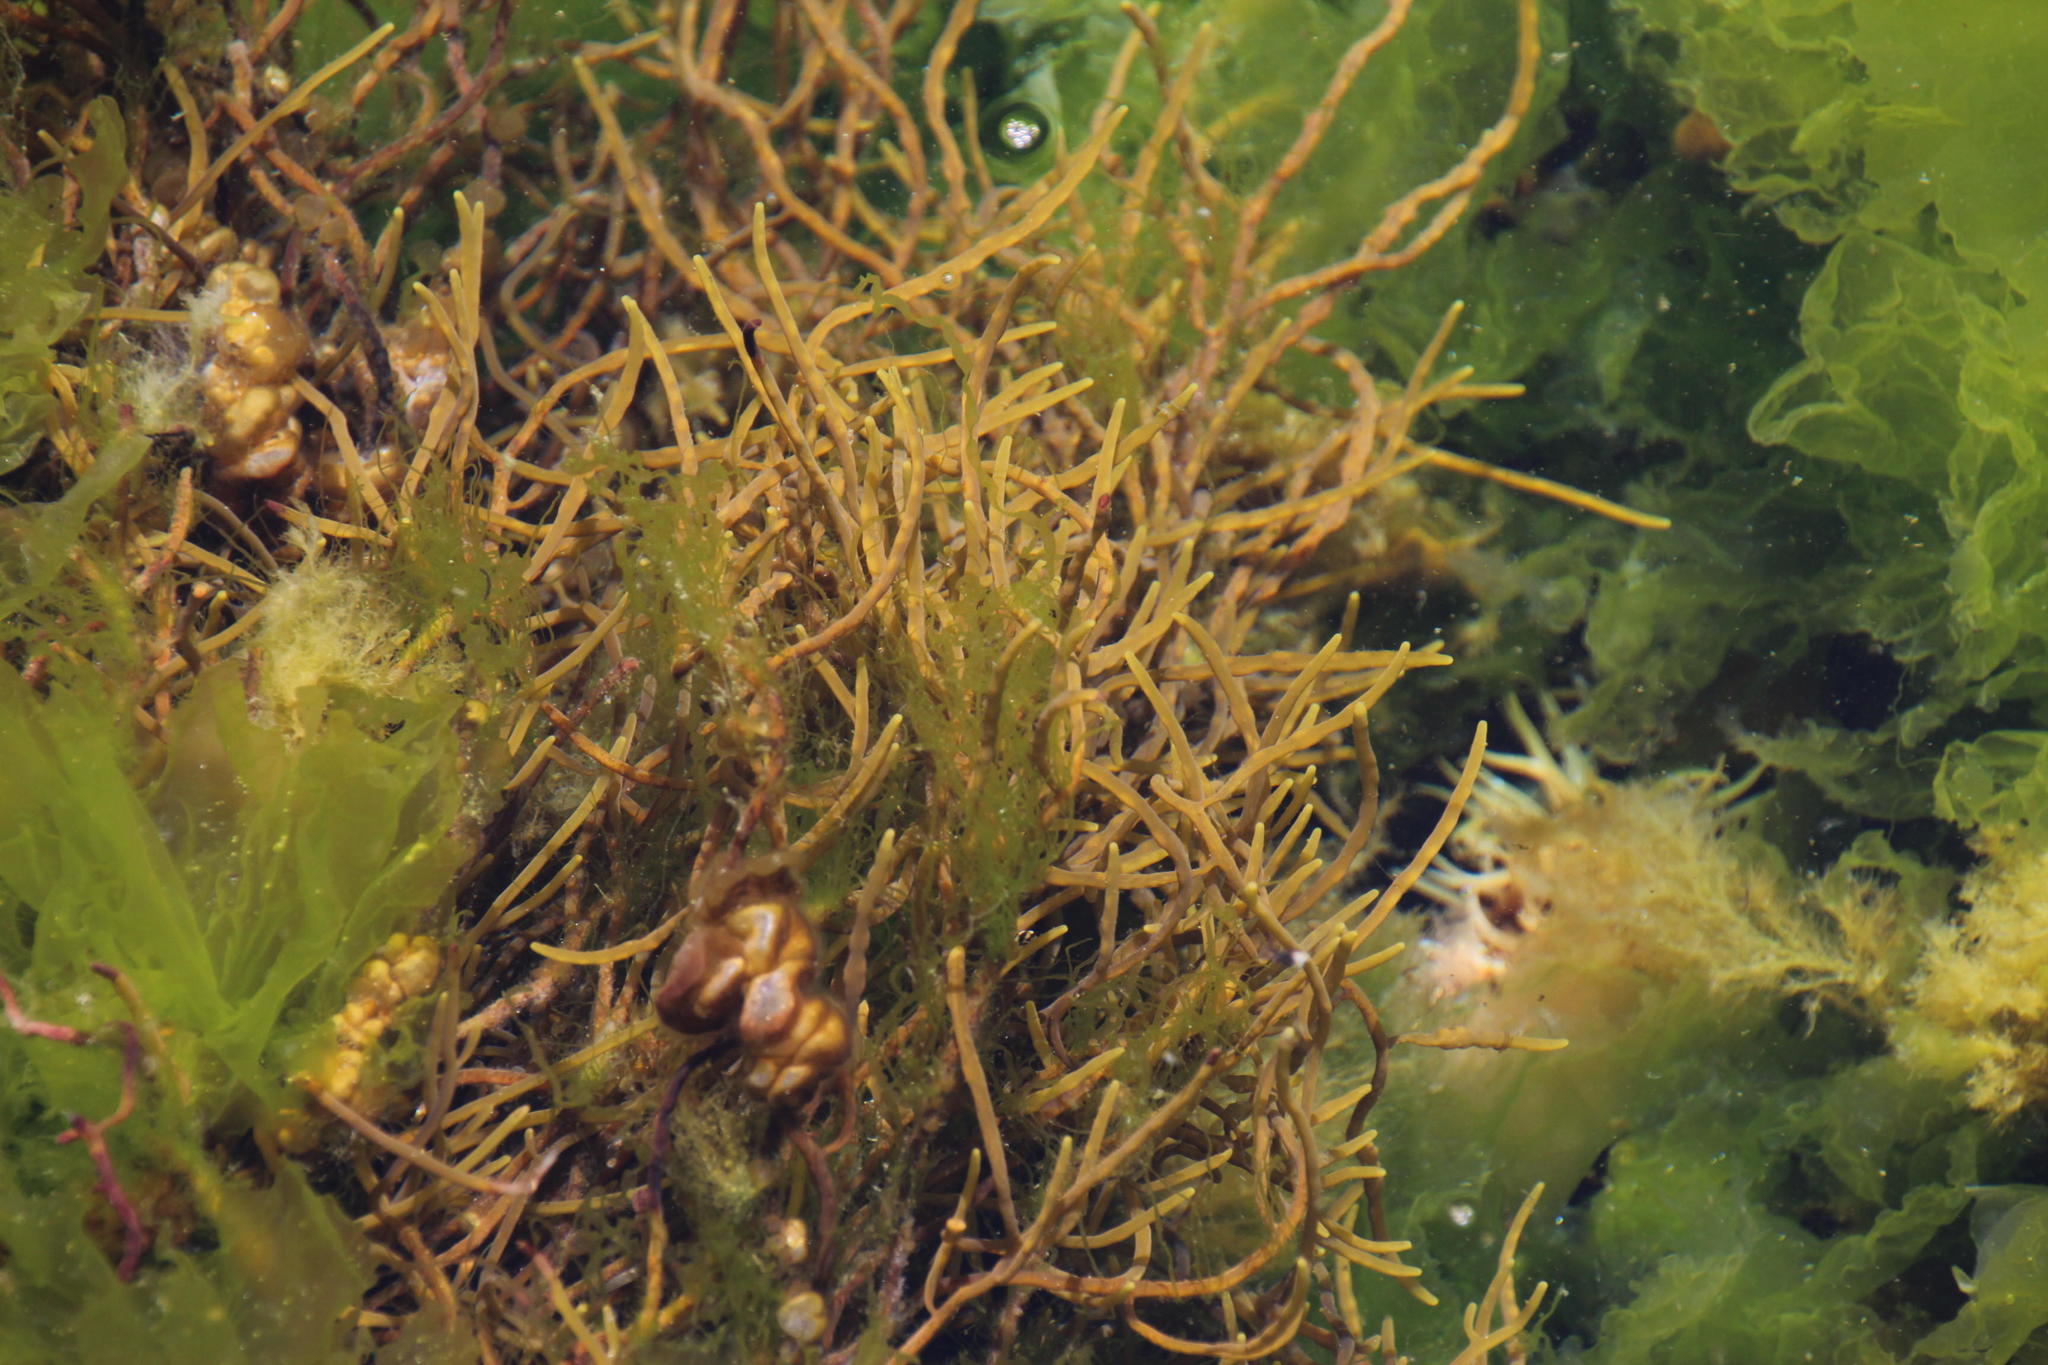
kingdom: Chromista
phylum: Ochrophyta
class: Phaeophyceae
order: Fucales
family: Sargassaceae
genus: Brassicophycus
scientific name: Brassicophycus
